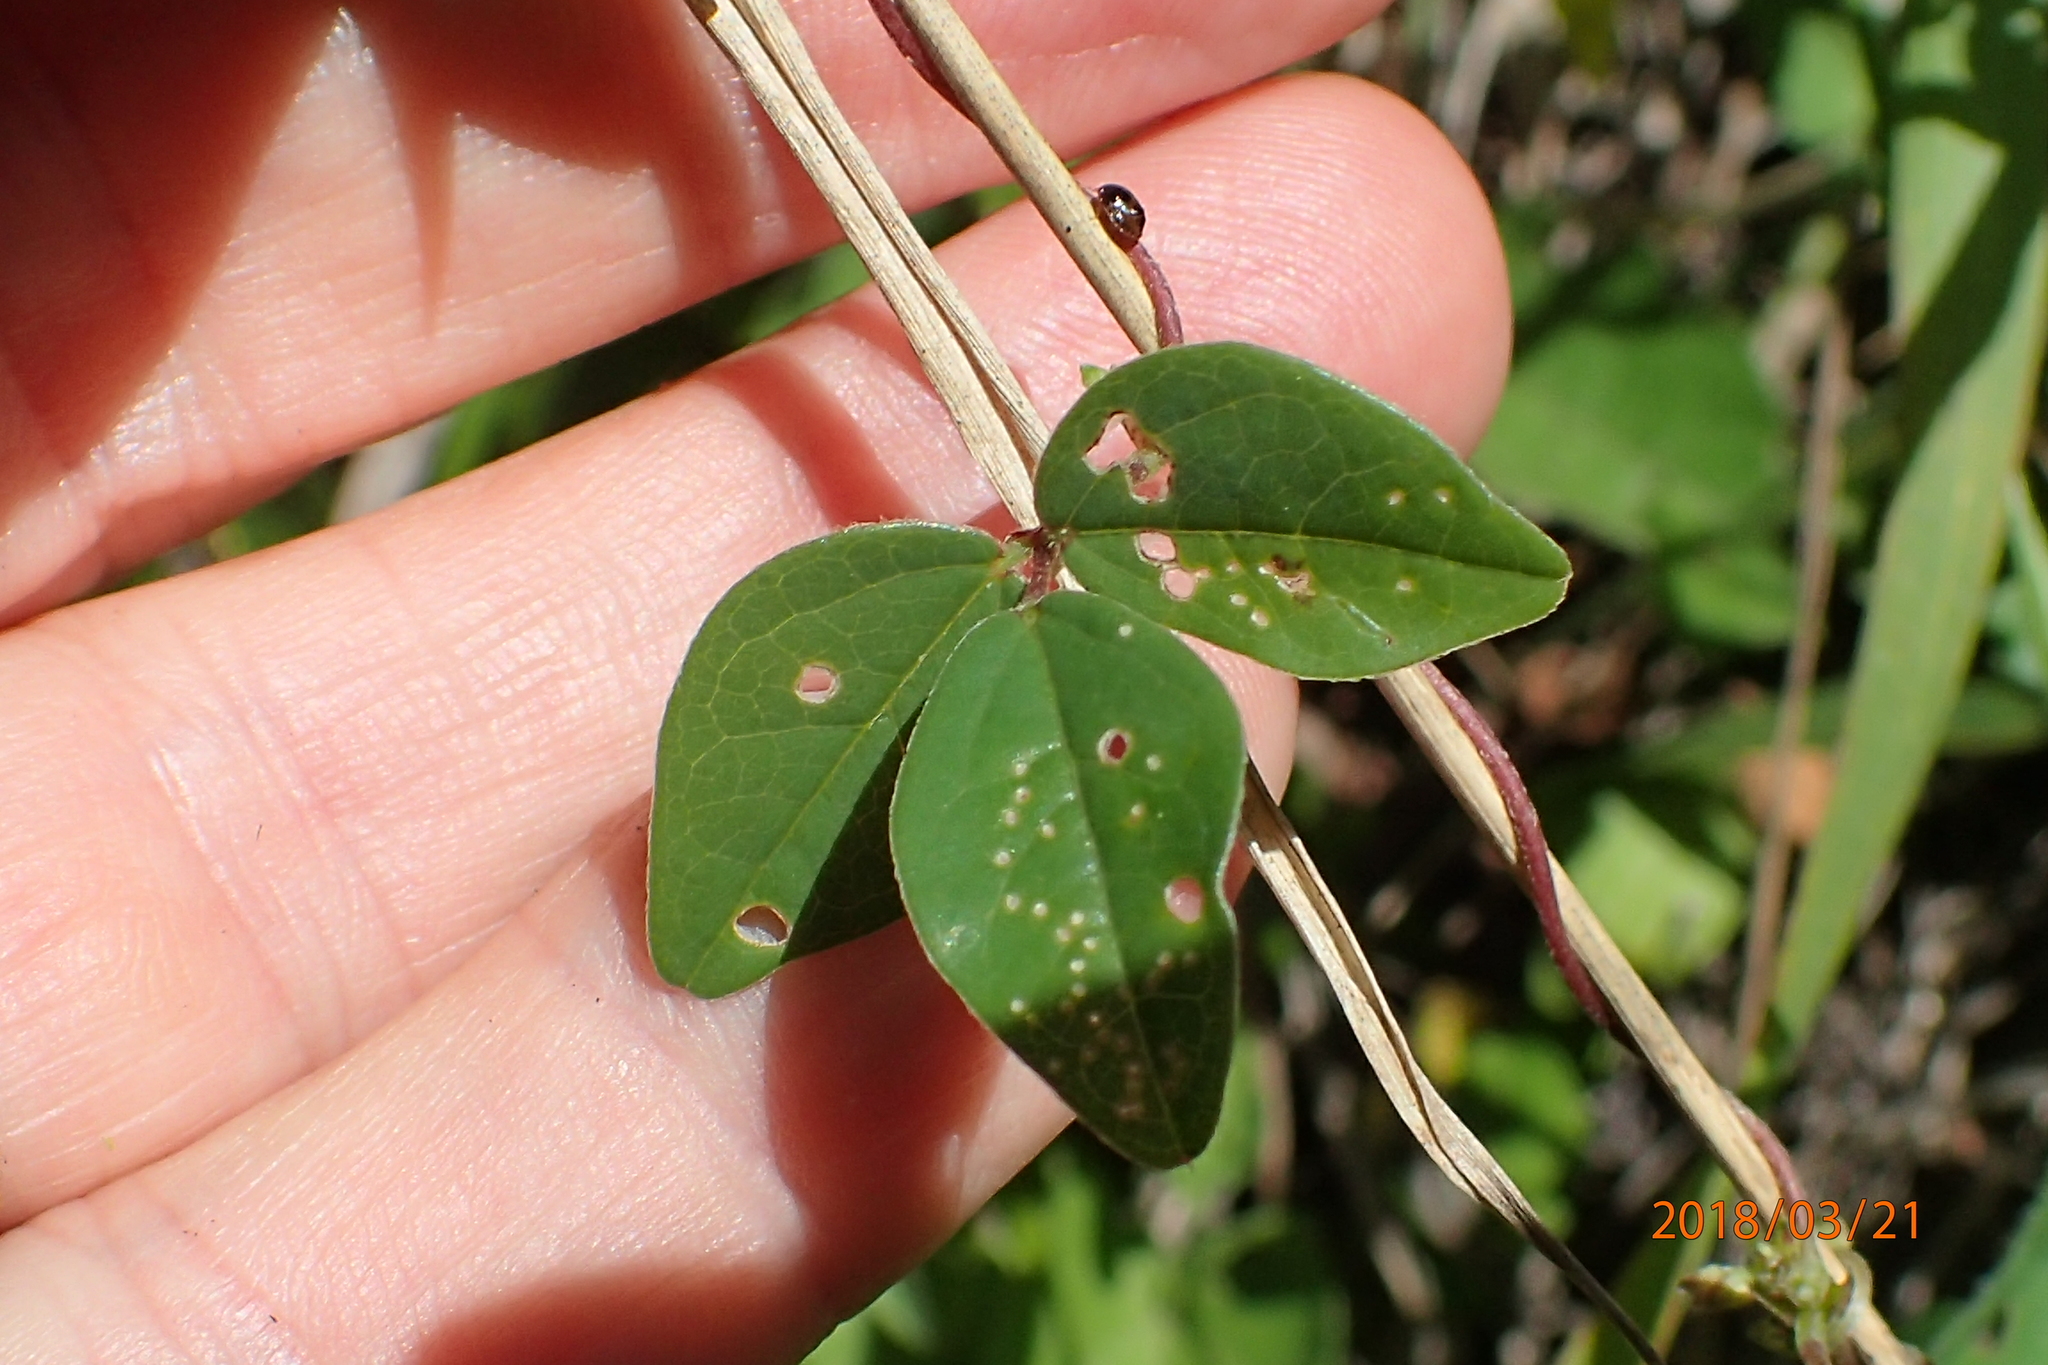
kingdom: Plantae
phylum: Tracheophyta
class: Magnoliopsida
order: Fabales
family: Fabaceae
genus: Macrotyloma
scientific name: Macrotyloma axillare
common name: Perennial horsegram
